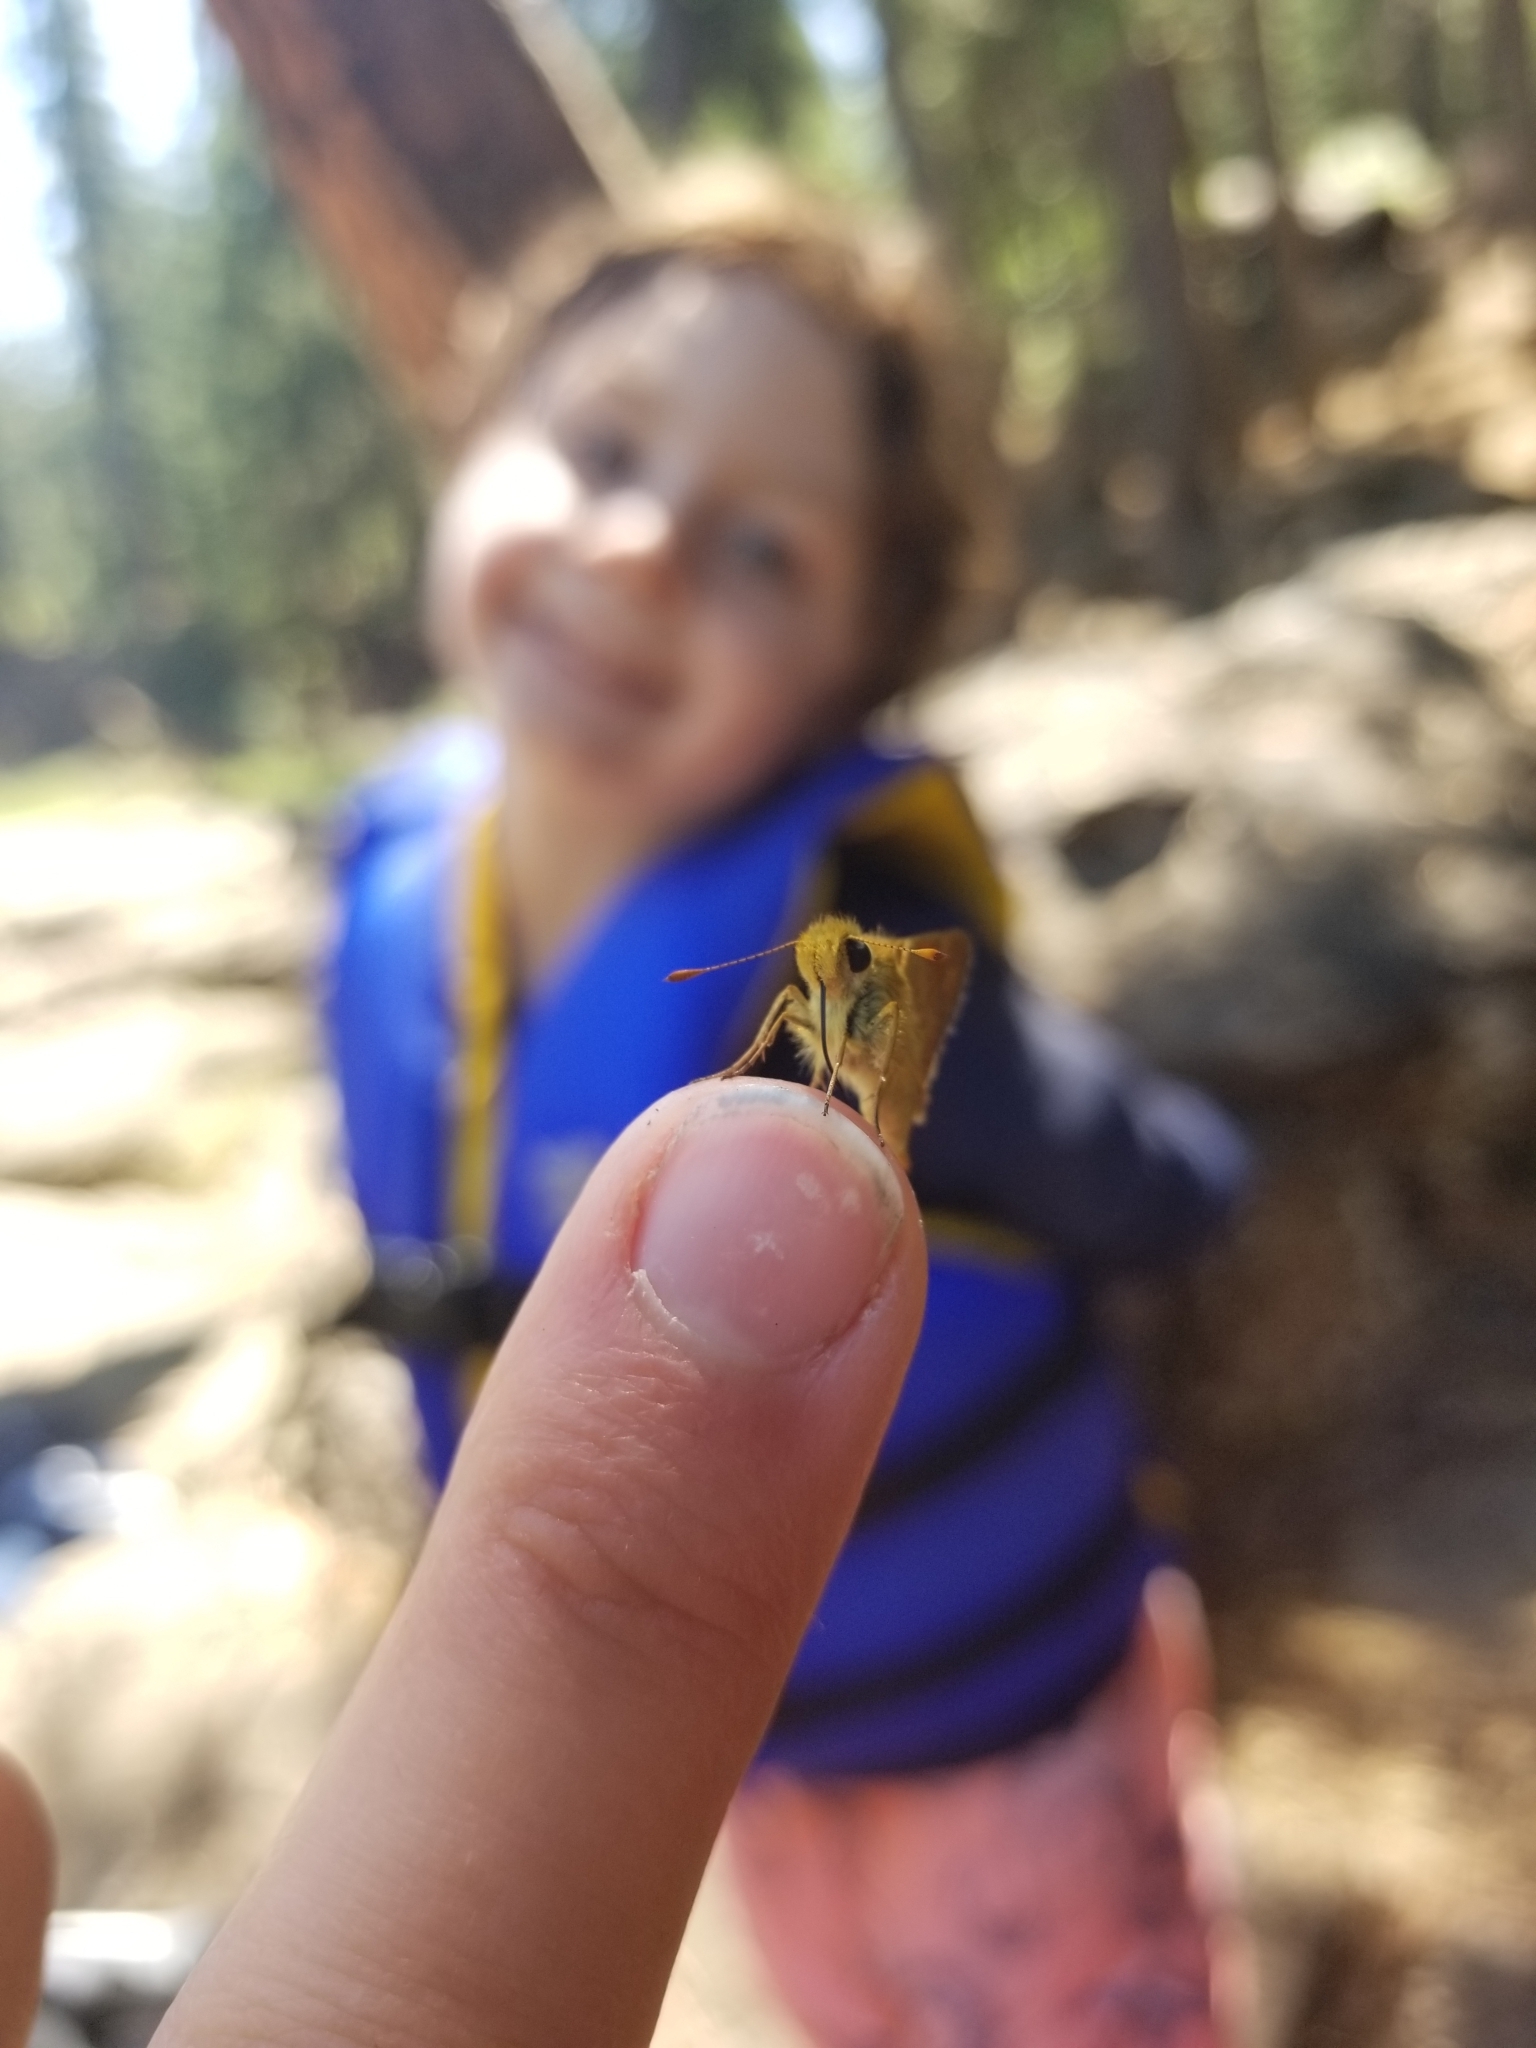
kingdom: Animalia
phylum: Arthropoda
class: Insecta
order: Lepidoptera
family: Hesperiidae
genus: Ochlodes
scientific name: Ochlodes sylvanoides
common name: Woodland skipper
